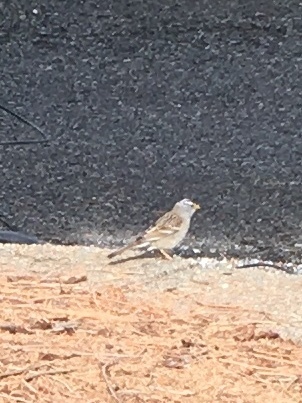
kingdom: Animalia
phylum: Chordata
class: Aves
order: Passeriformes
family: Passerellidae
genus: Zonotrichia
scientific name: Zonotrichia leucophrys
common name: White-crowned sparrow
